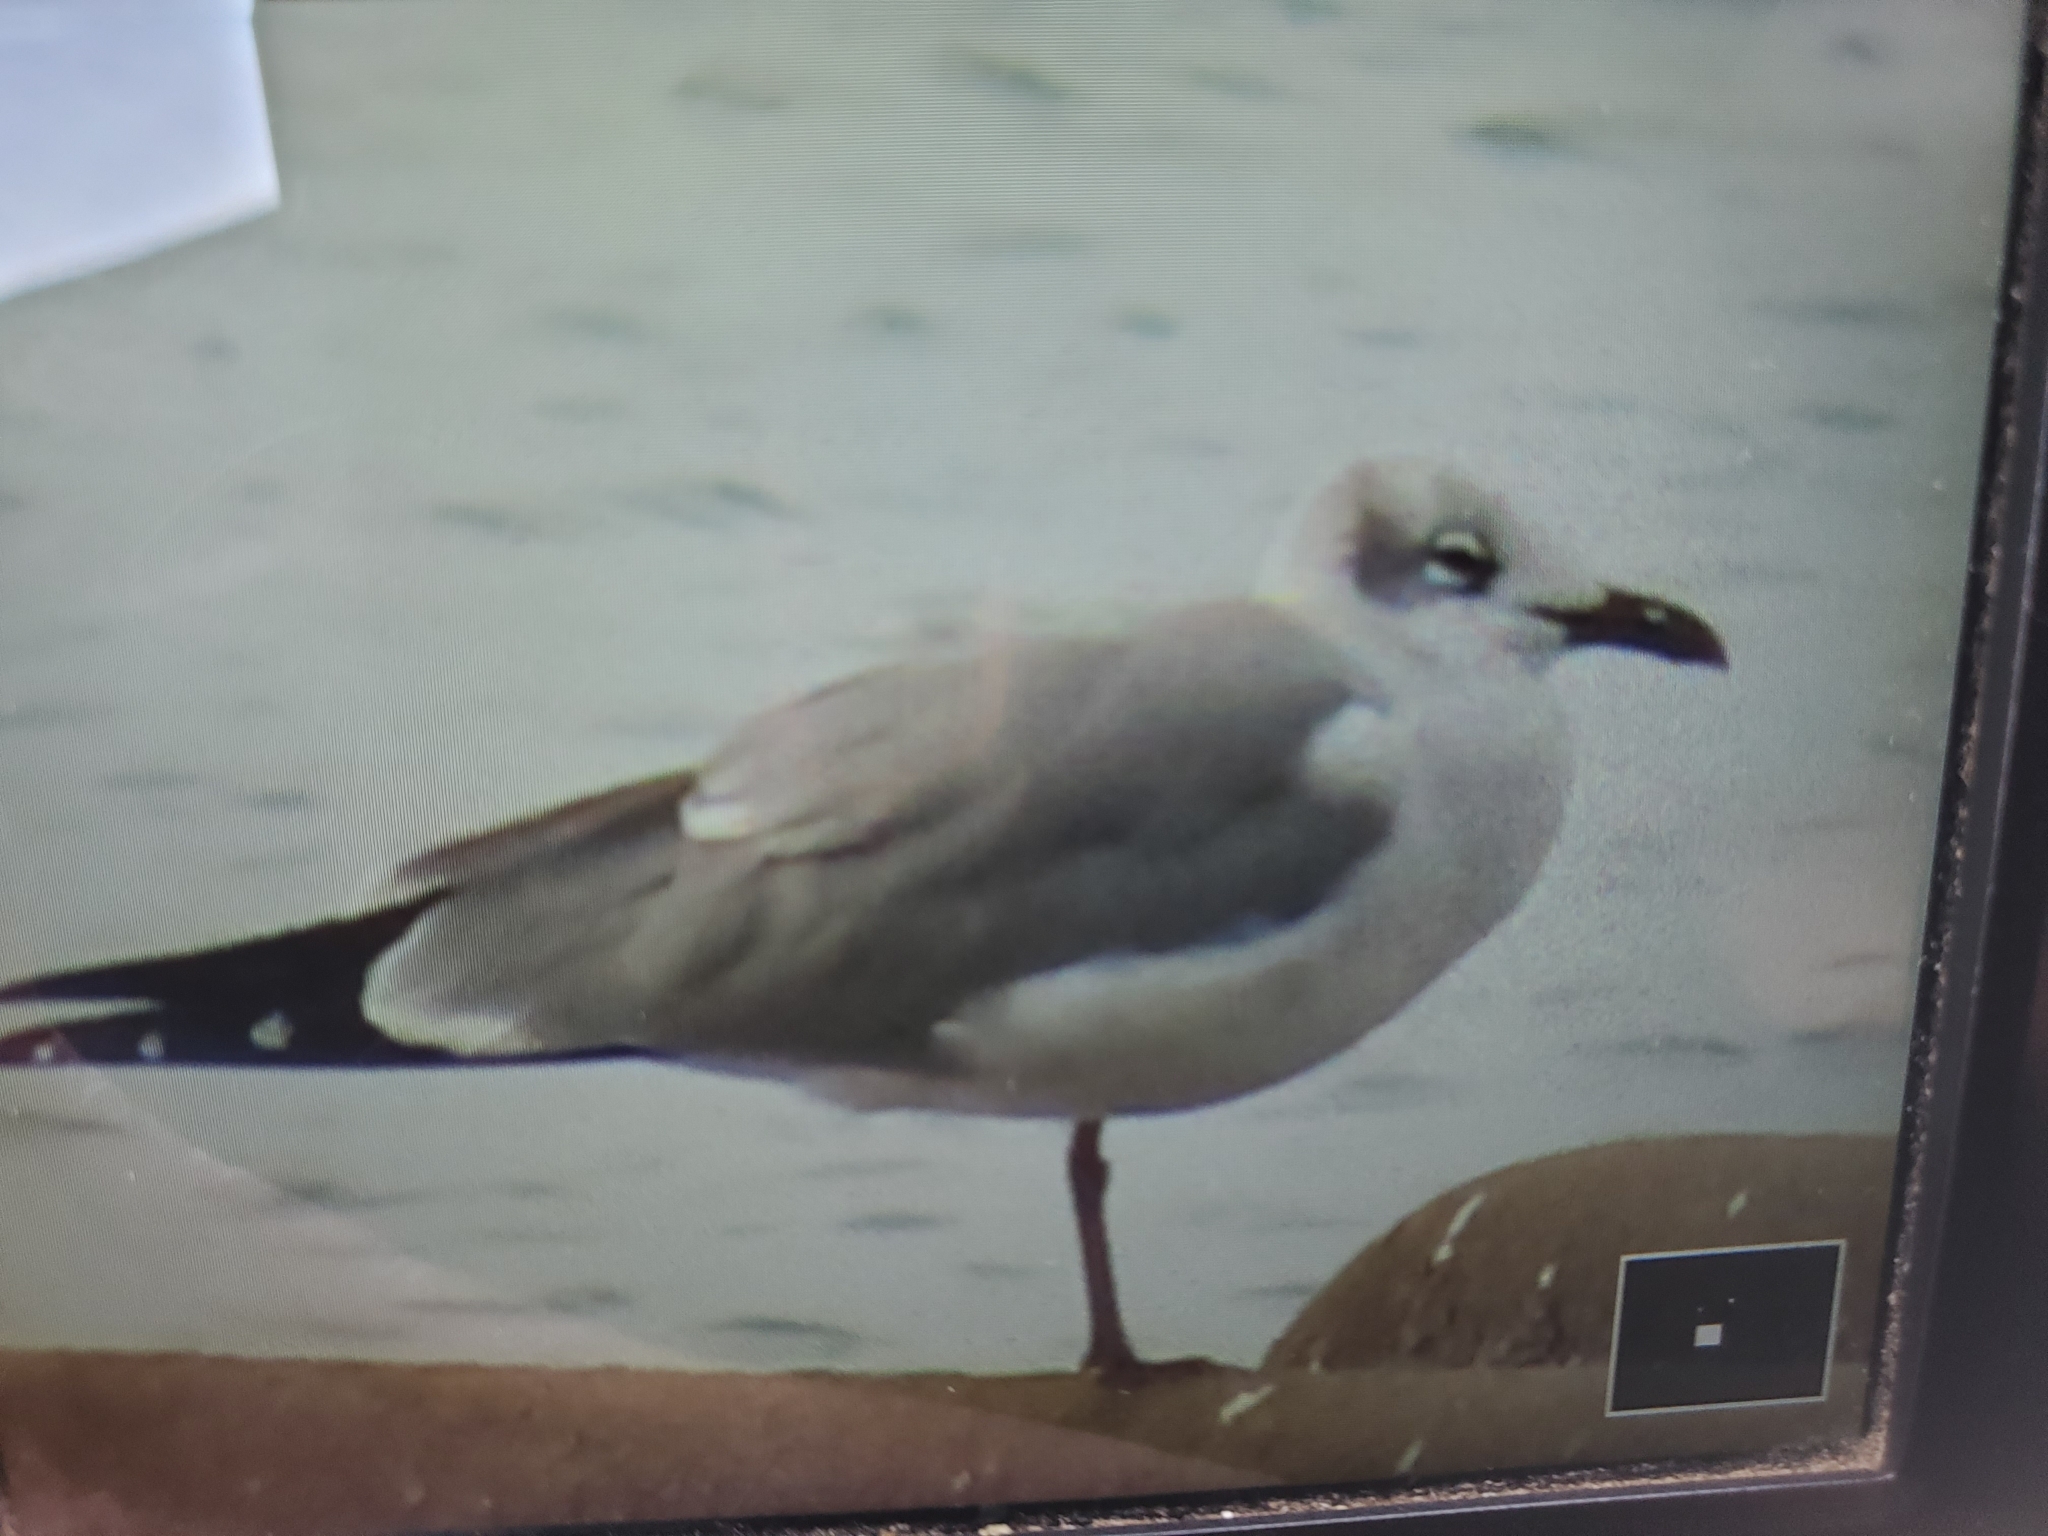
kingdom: Animalia
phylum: Chordata
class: Aves
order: Charadriiformes
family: Laridae
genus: Leucophaeus
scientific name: Leucophaeus atricilla
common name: Laughing gull
